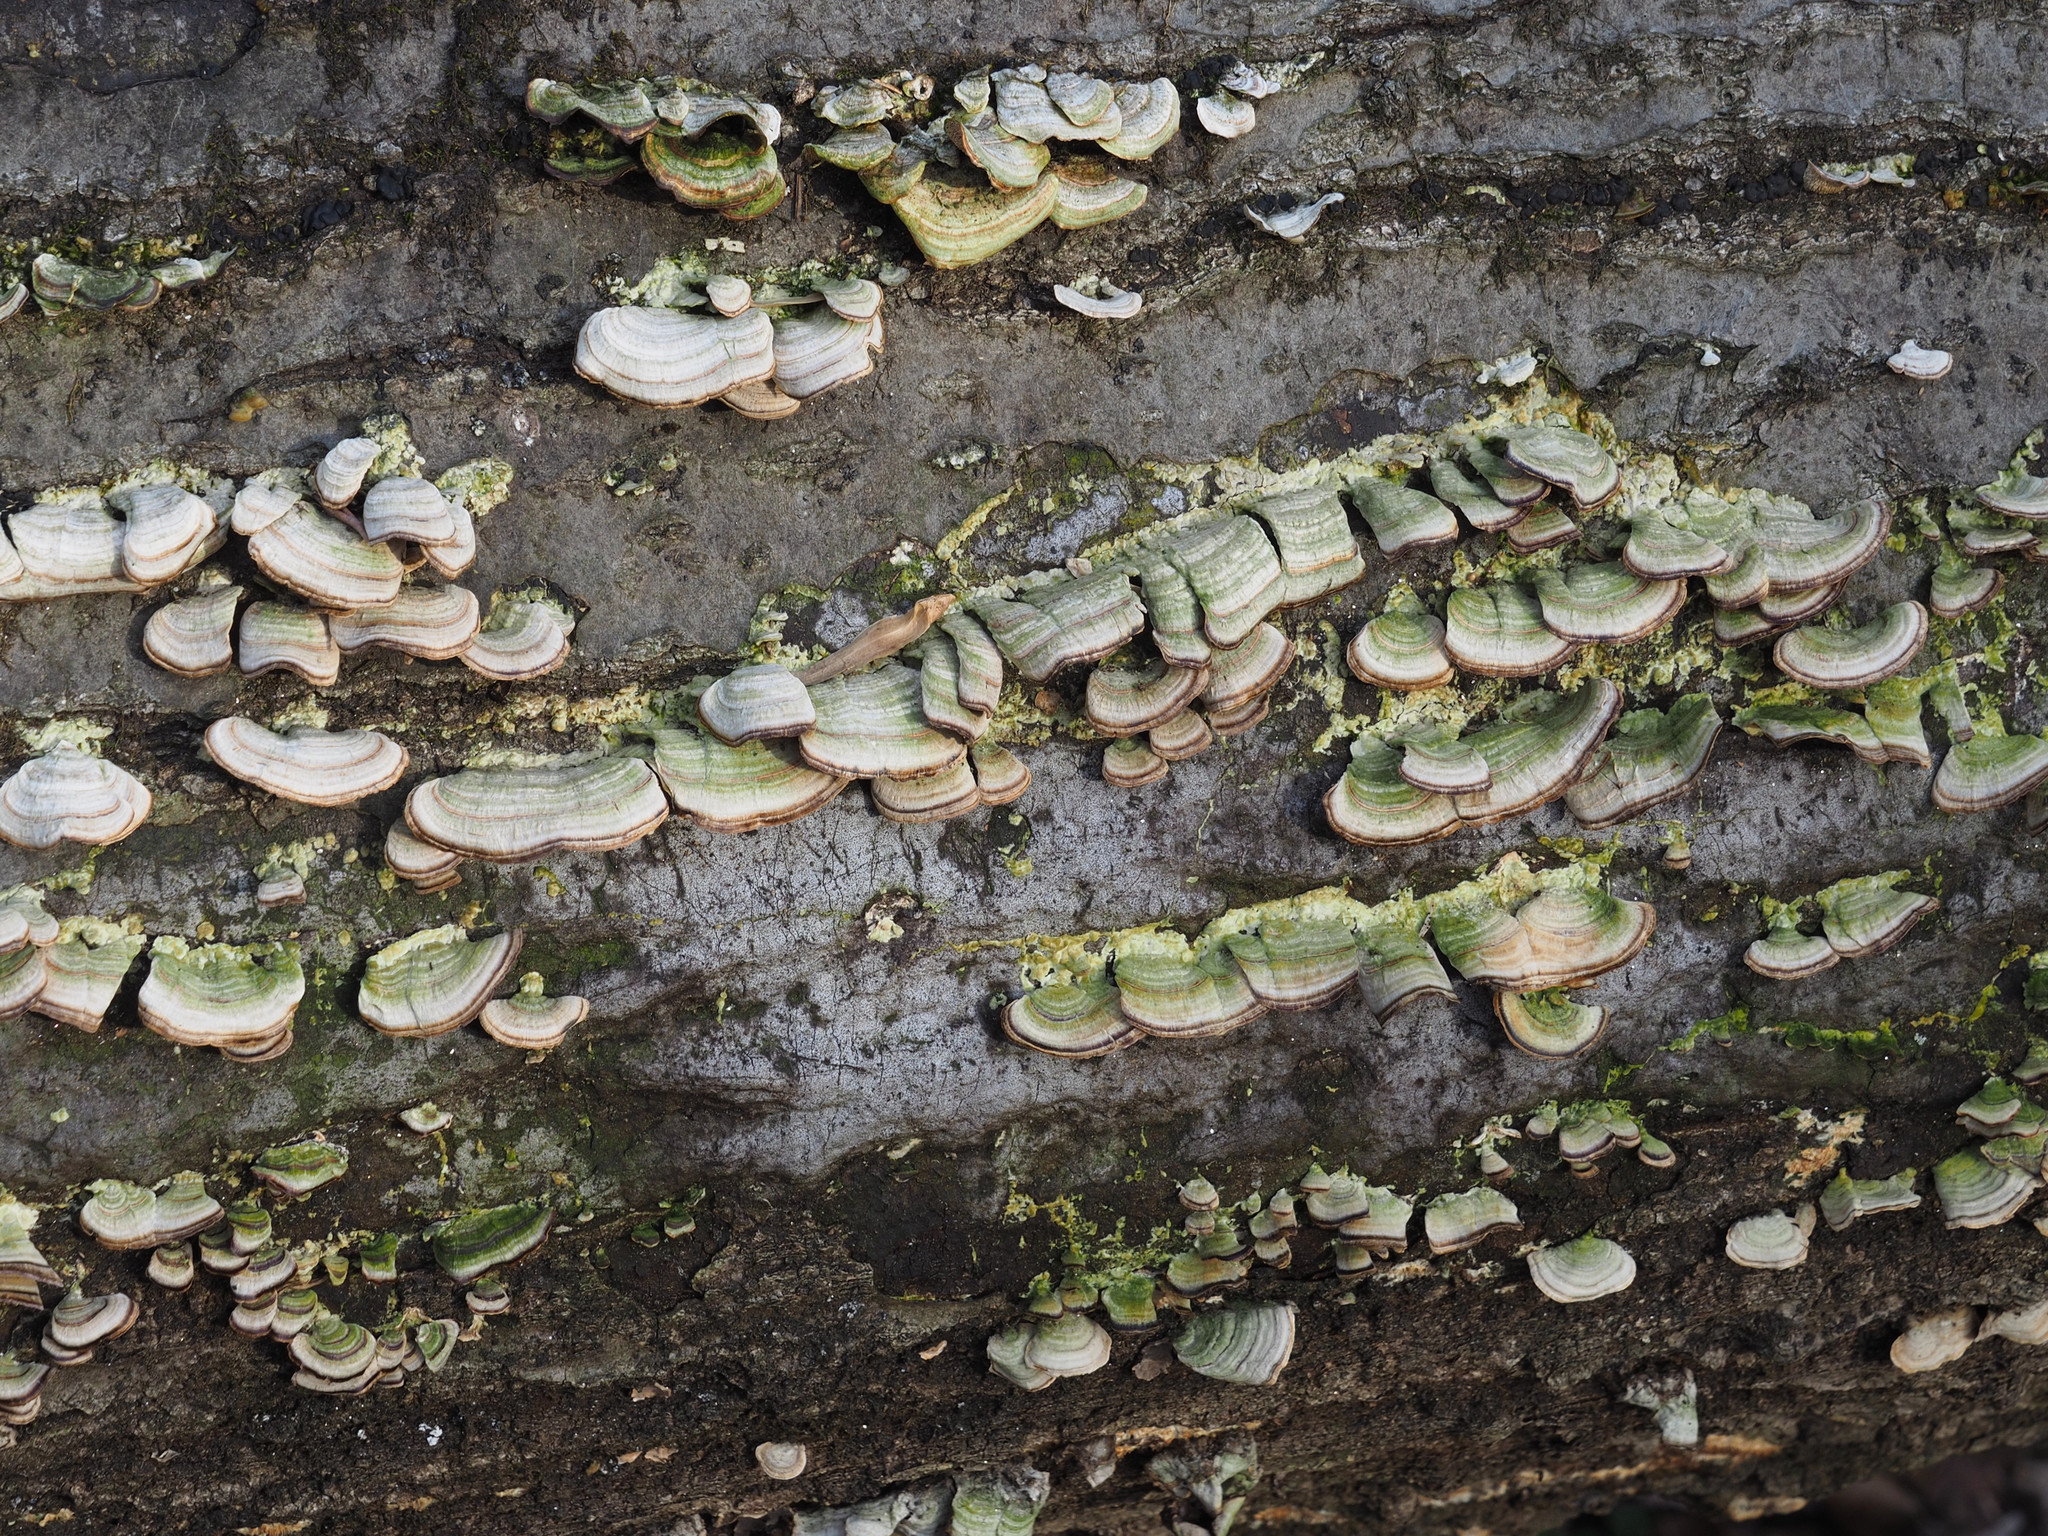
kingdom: Fungi
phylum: Basidiomycota
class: Agaricomycetes
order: Hymenochaetales
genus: Trichaptum
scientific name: Trichaptum biforme
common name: Violet-toothed polypore
